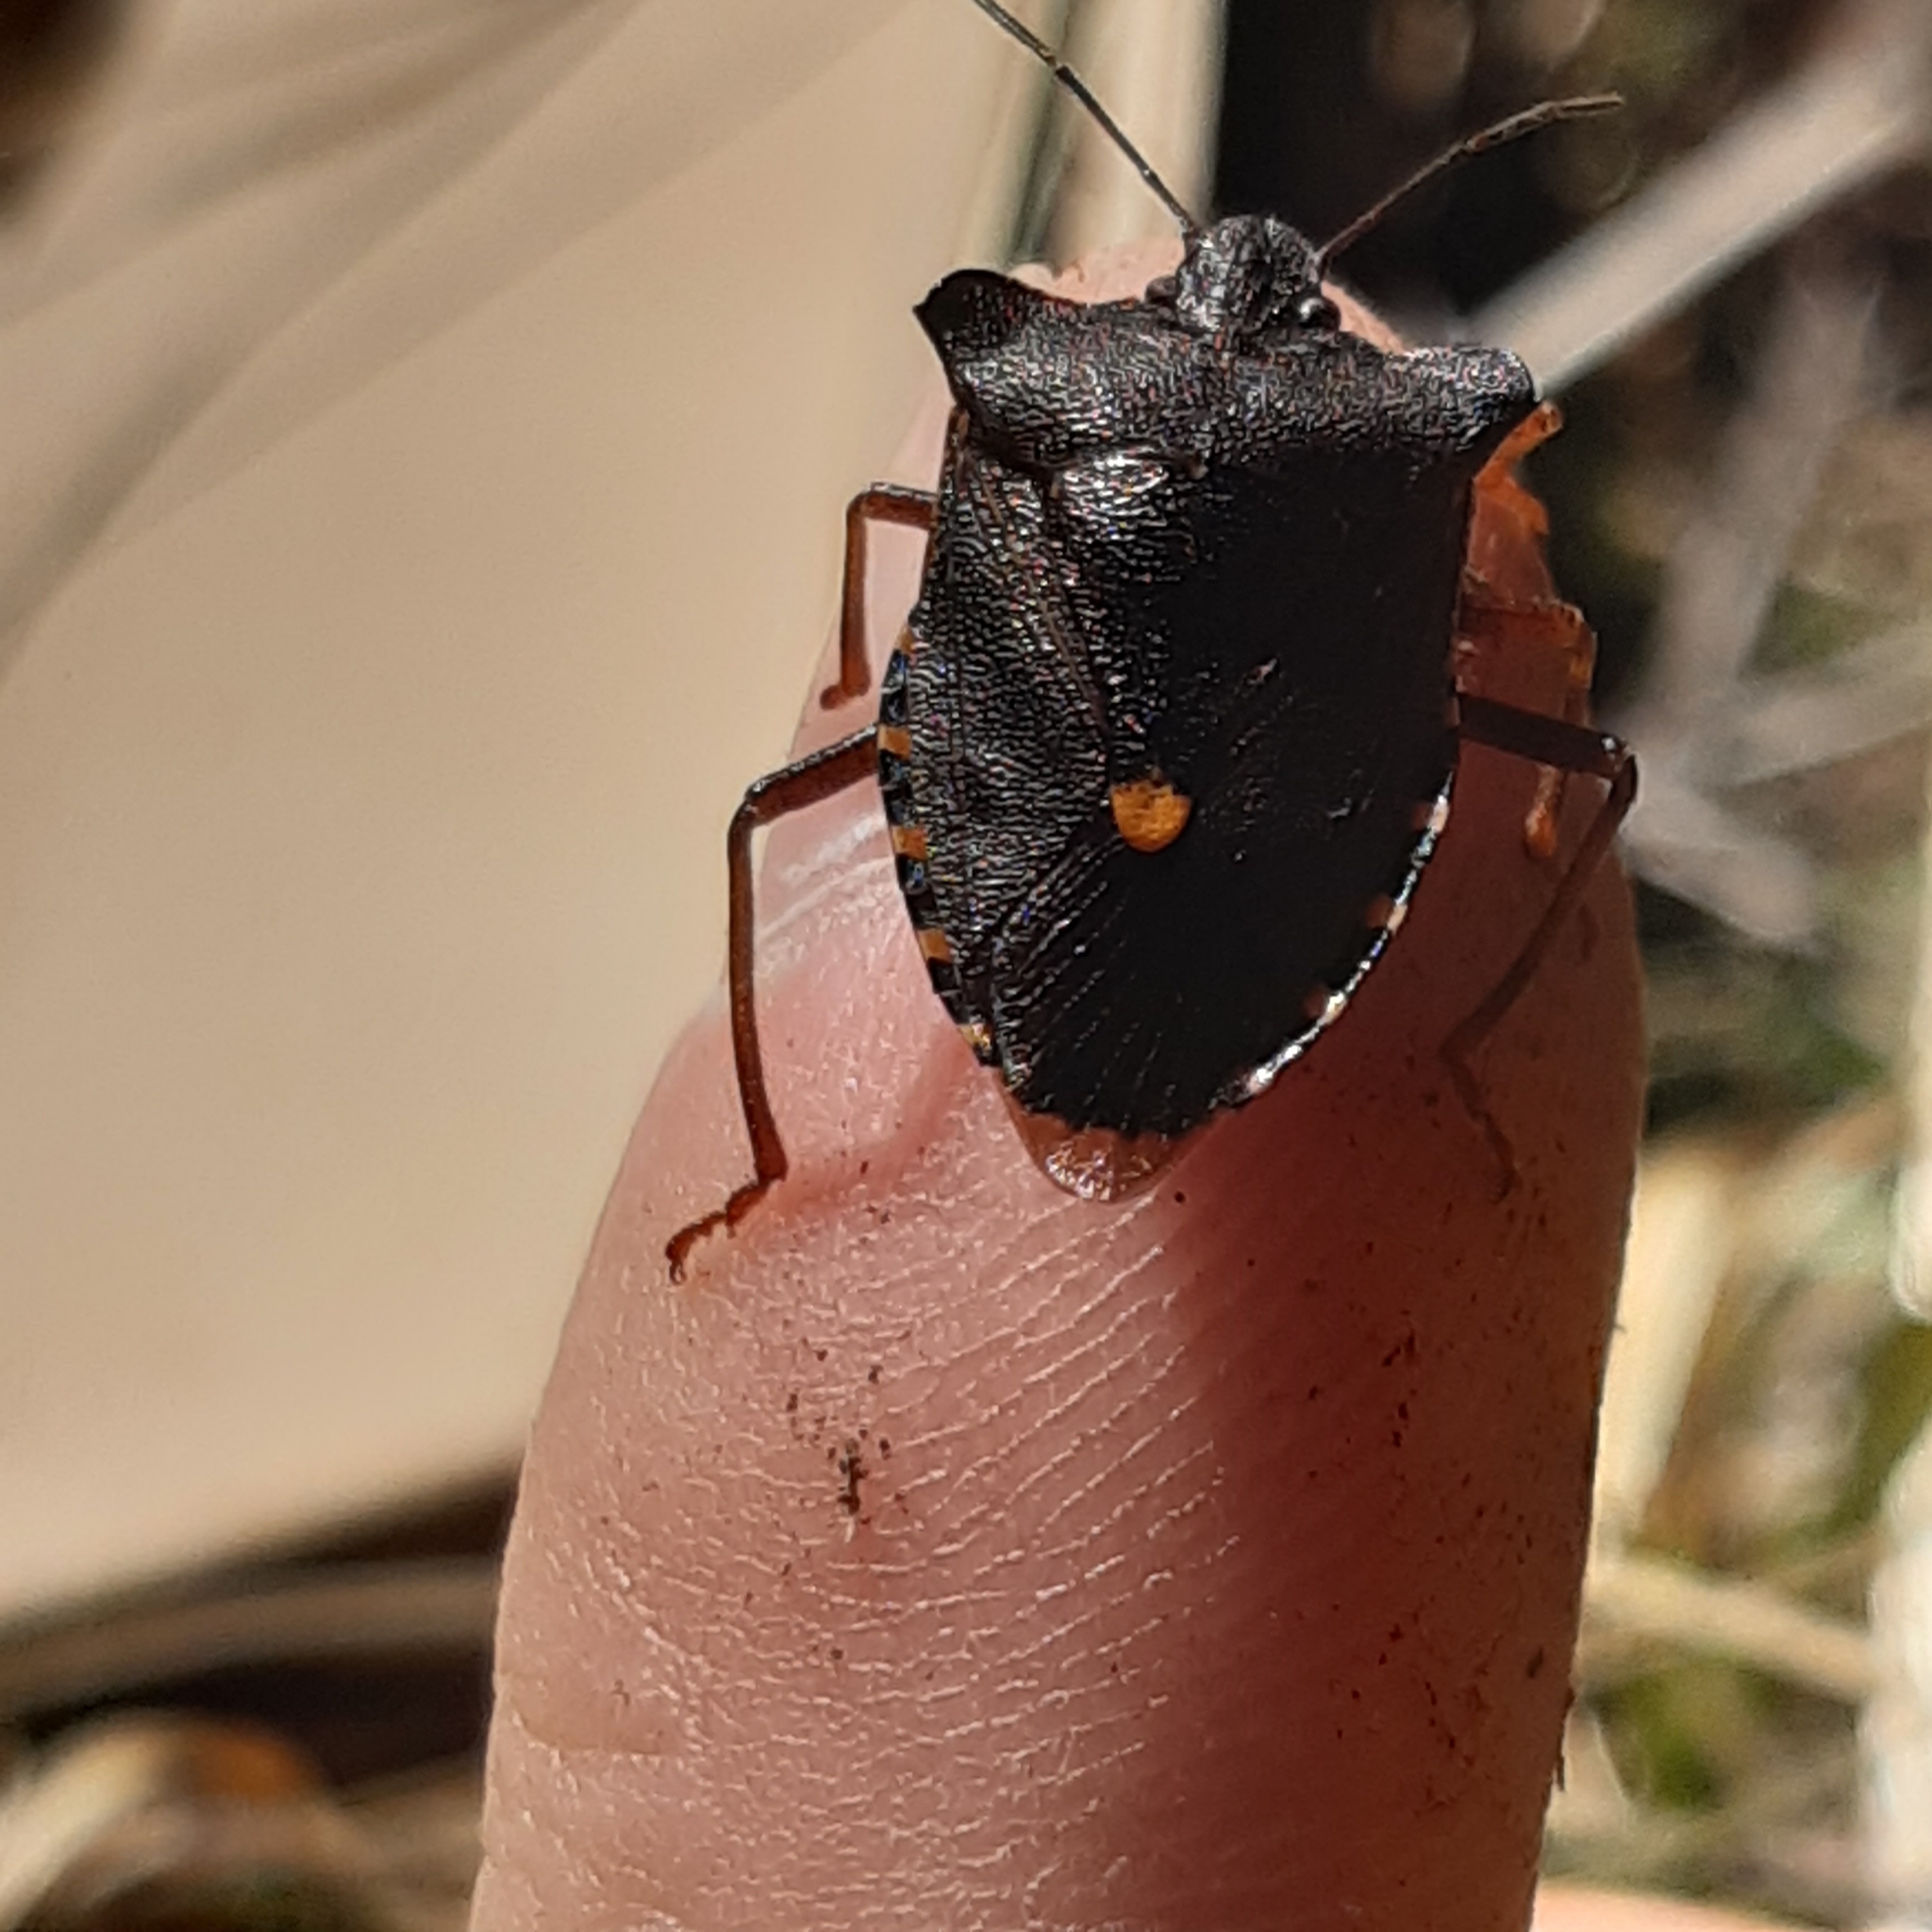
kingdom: Animalia
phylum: Arthropoda
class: Insecta
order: Hemiptera
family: Pentatomidae
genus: Pentatoma
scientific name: Pentatoma rufipes
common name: Forest bug
